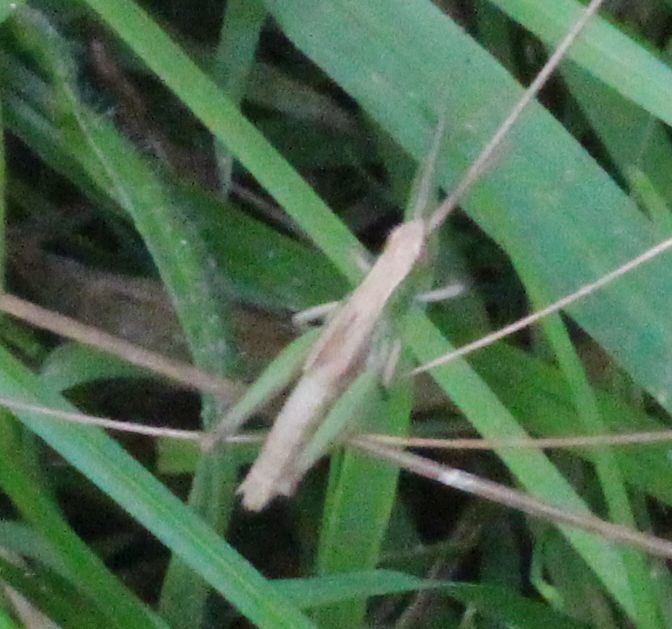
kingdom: Animalia
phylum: Arthropoda
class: Insecta
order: Orthoptera
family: Acrididae
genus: Chorthippus
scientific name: Chorthippus albomarginatus
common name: Lesser marsh grasshopper
